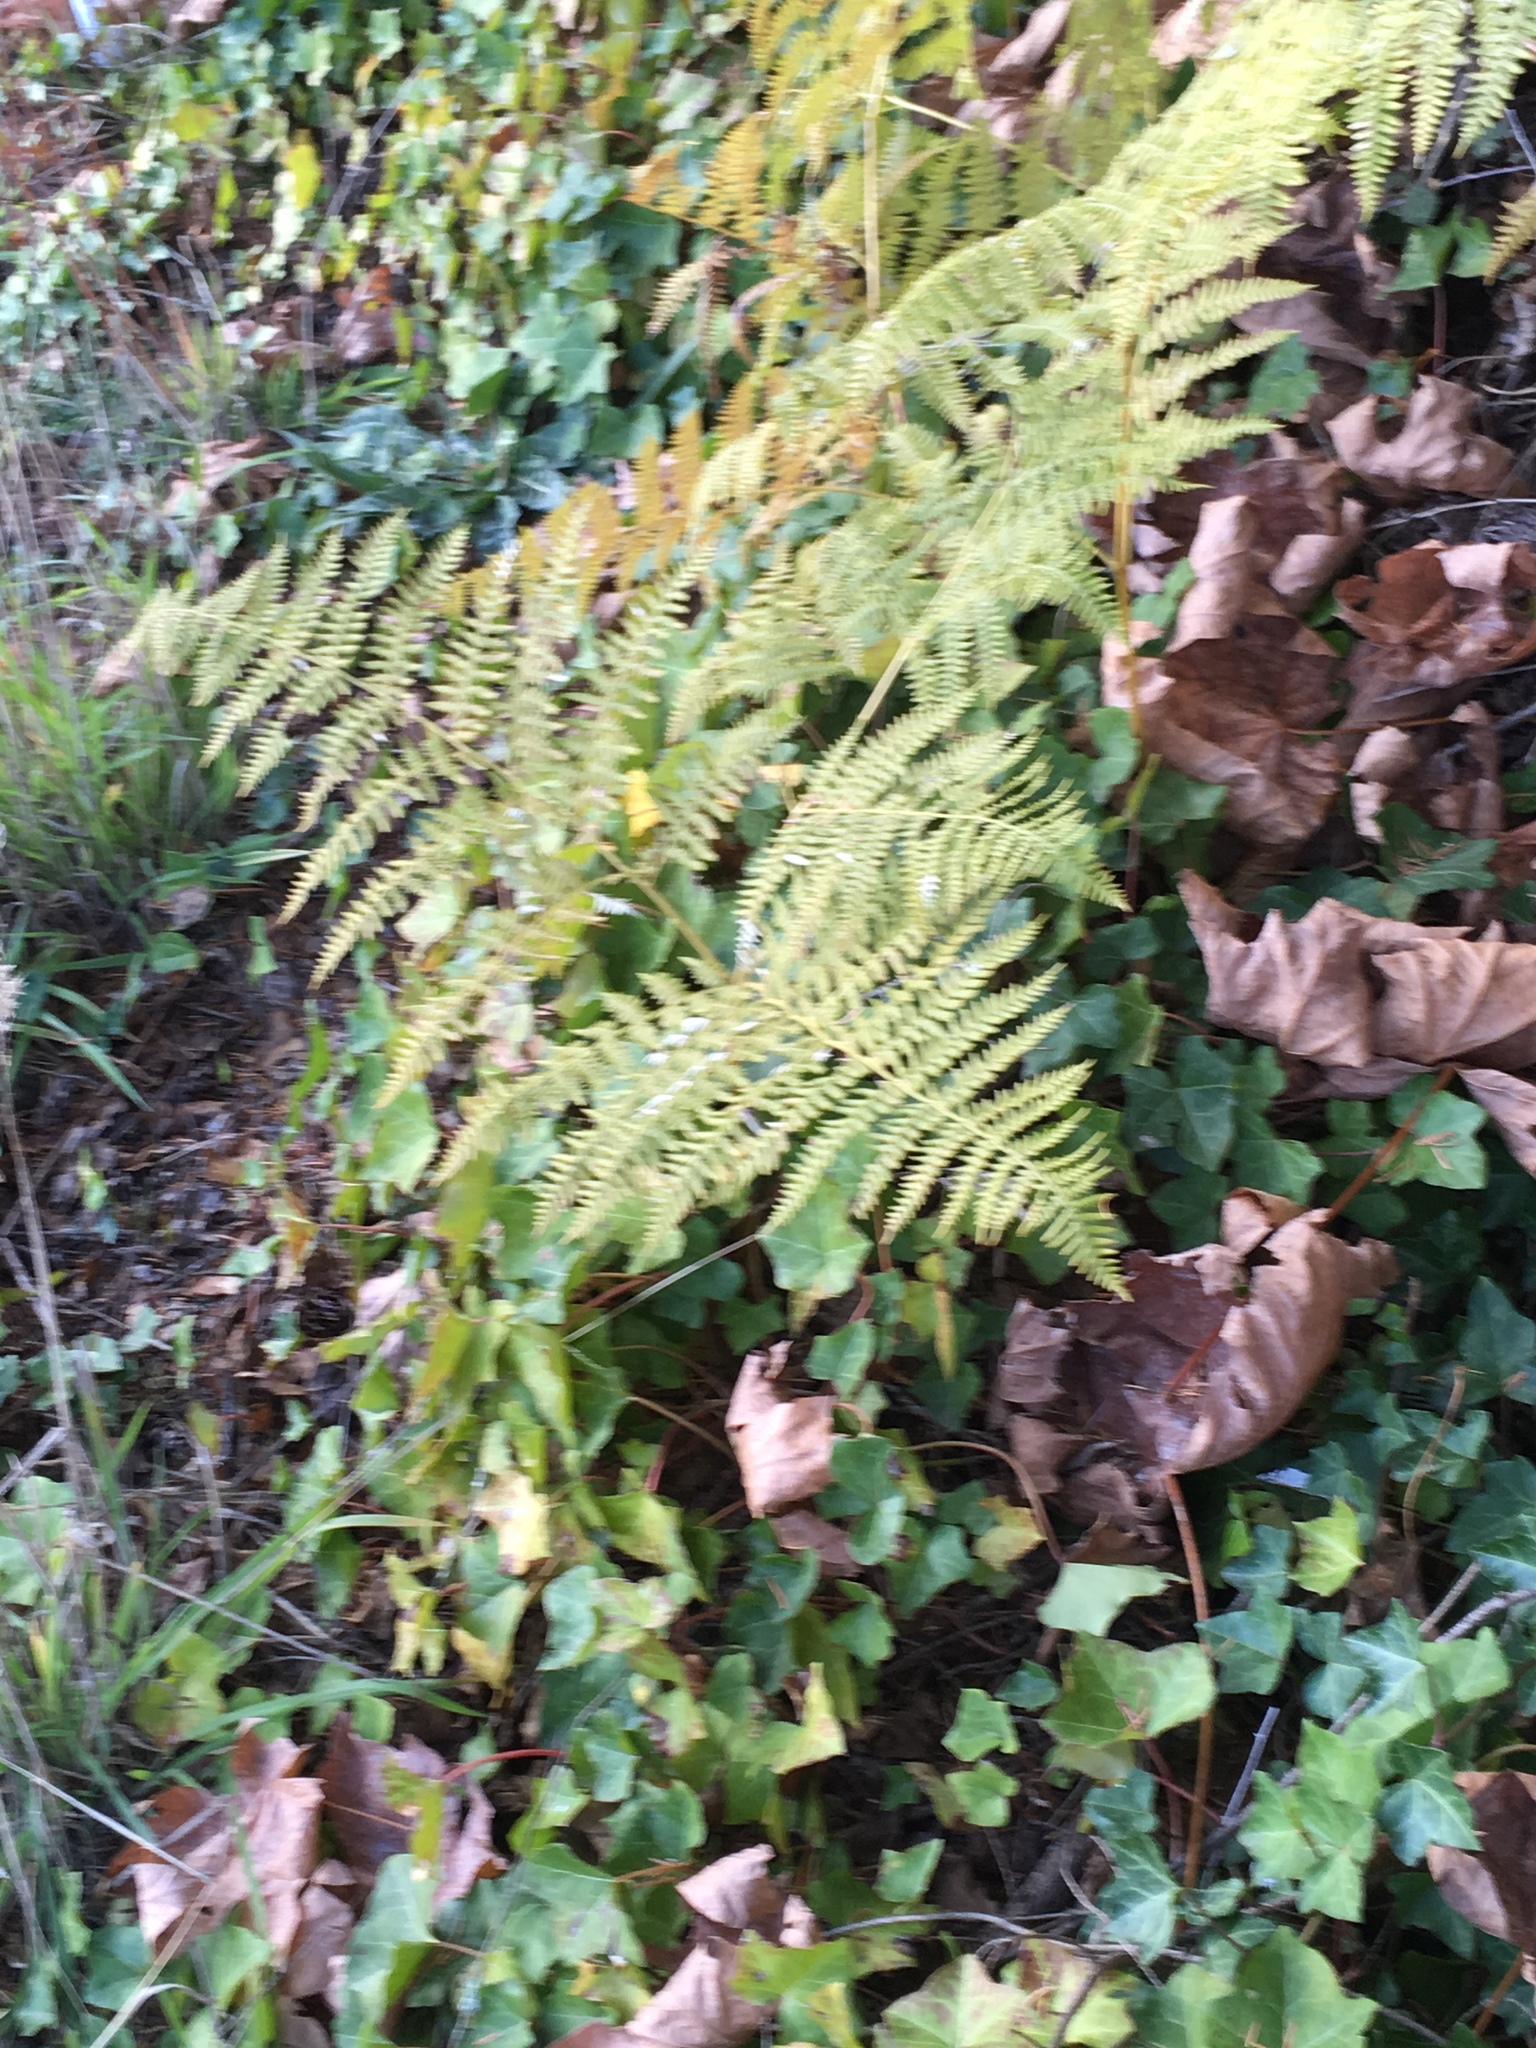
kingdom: Plantae
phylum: Tracheophyta
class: Polypodiopsida
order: Polypodiales
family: Dennstaedtiaceae
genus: Pteridium
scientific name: Pteridium aquilinum
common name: Bracken
